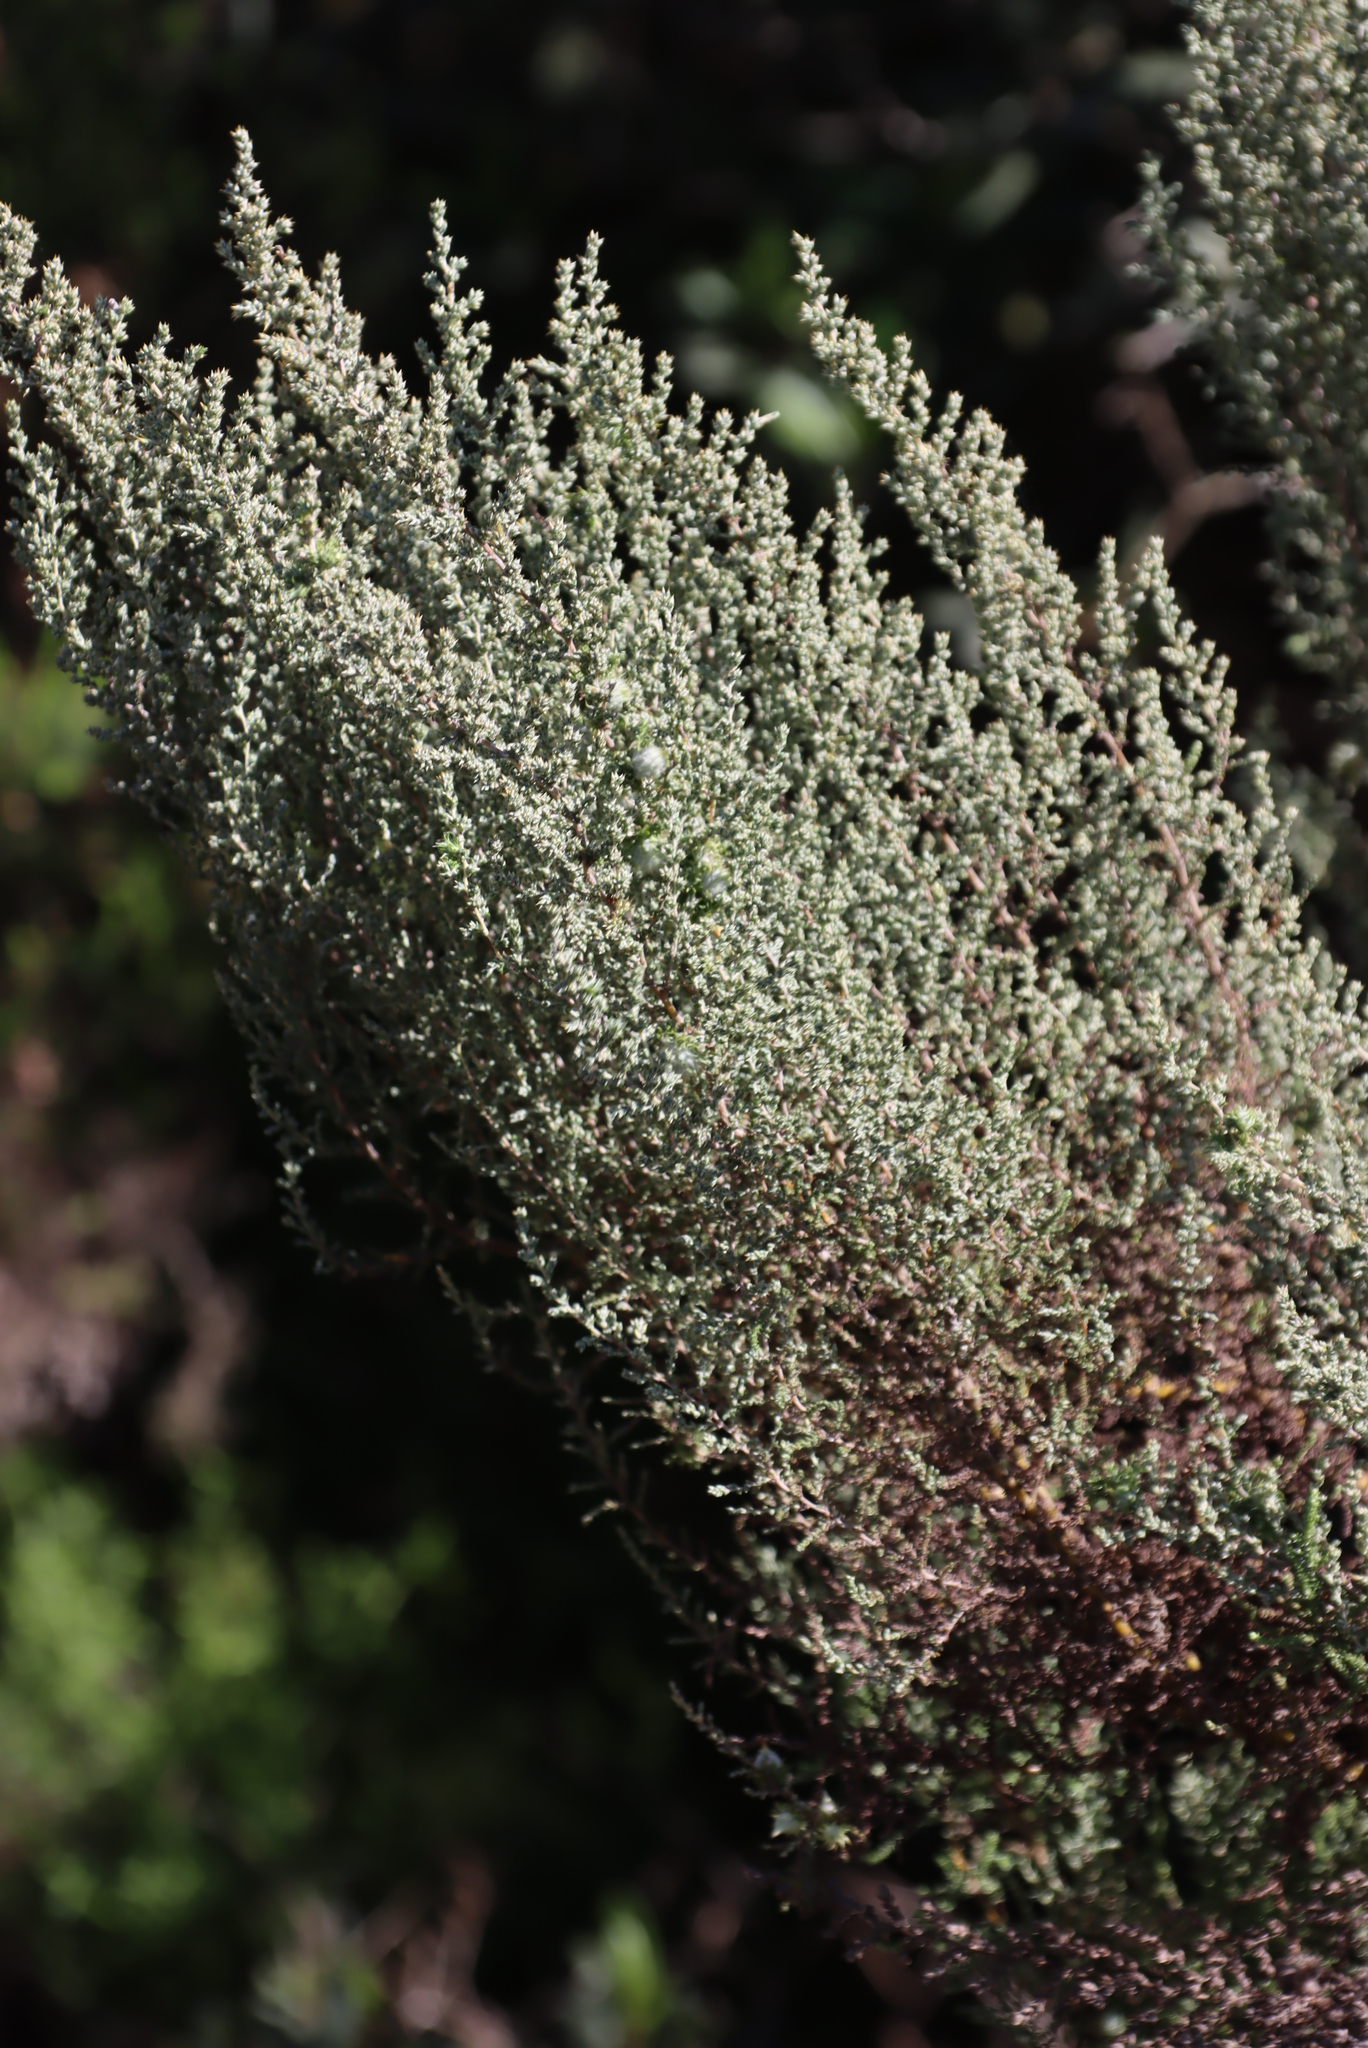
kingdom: Plantae
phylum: Tracheophyta
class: Magnoliopsida
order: Asterales
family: Asteraceae
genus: Seriphium
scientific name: Seriphium cinereum
